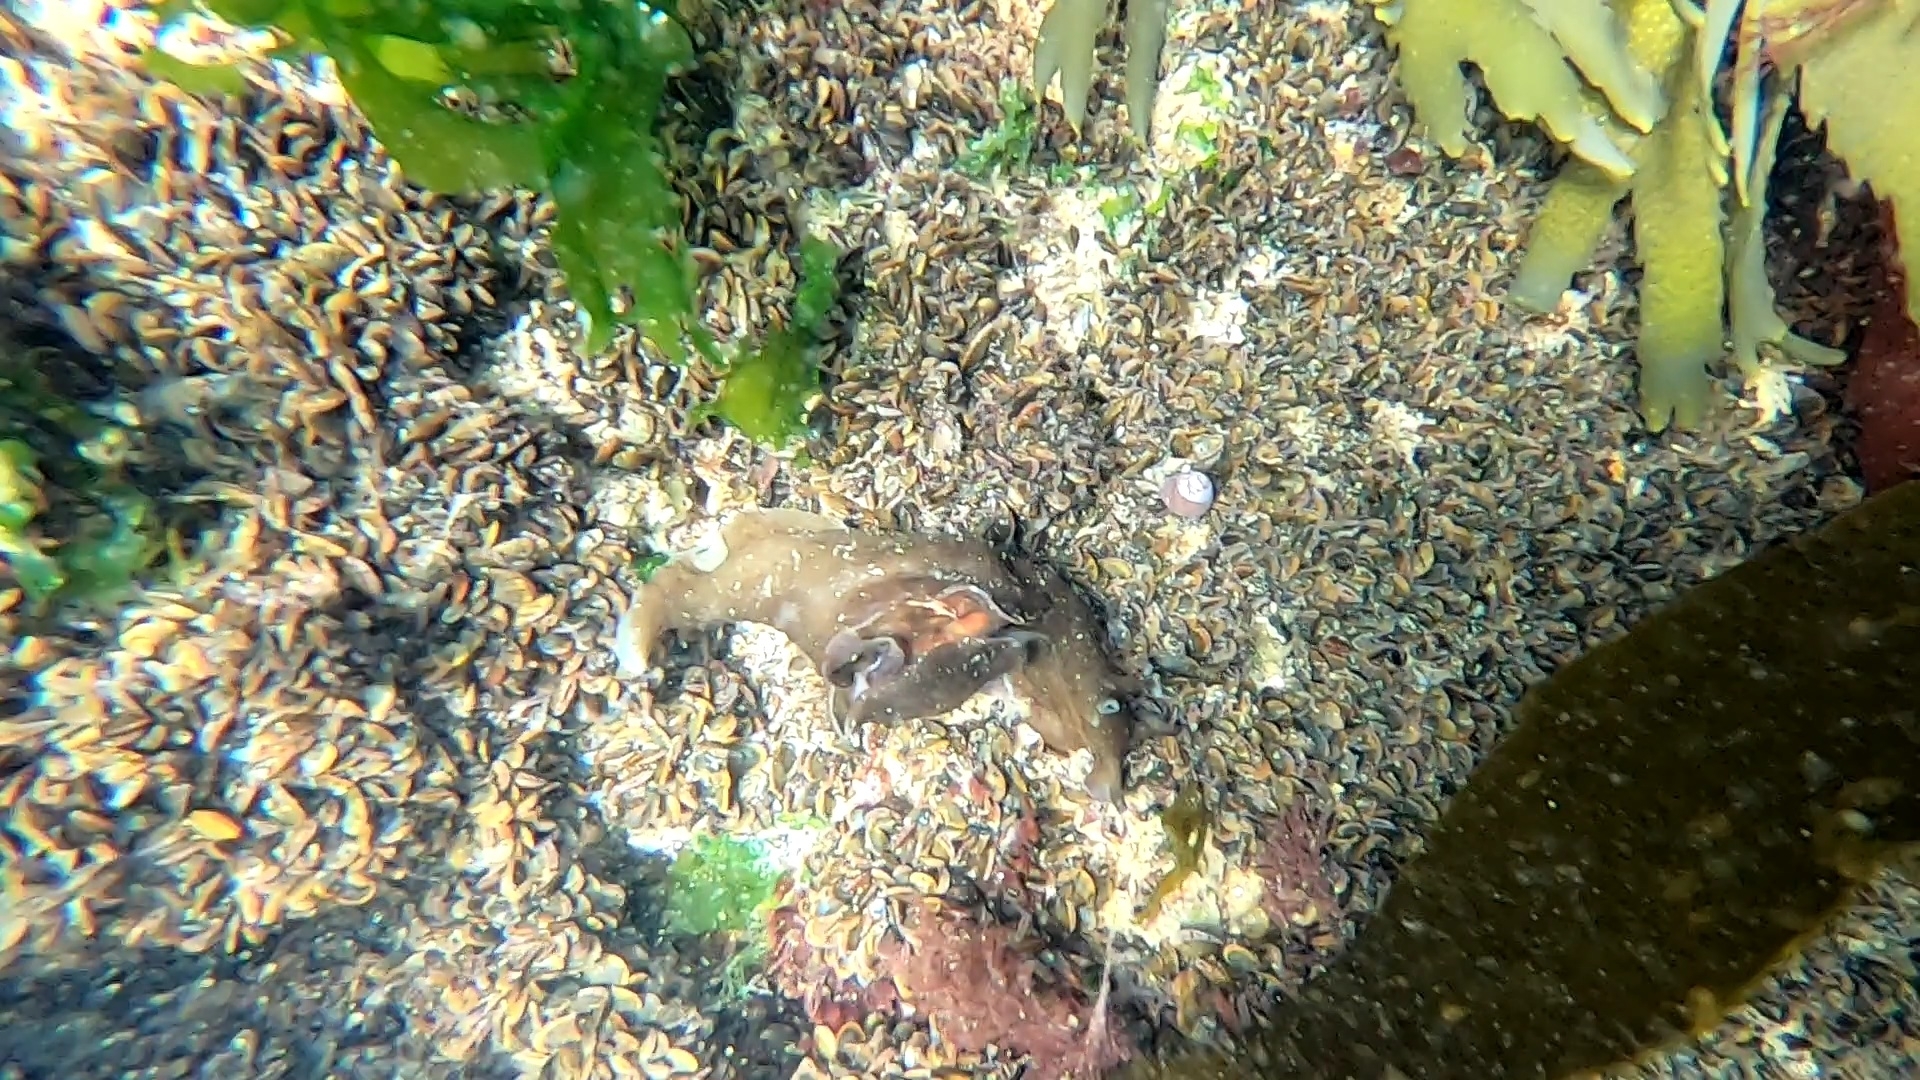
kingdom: Animalia
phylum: Mollusca
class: Gastropoda
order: Aplysiida
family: Aplysiidae
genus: Aplysia
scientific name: Aplysia punctata
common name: Common sea hare
